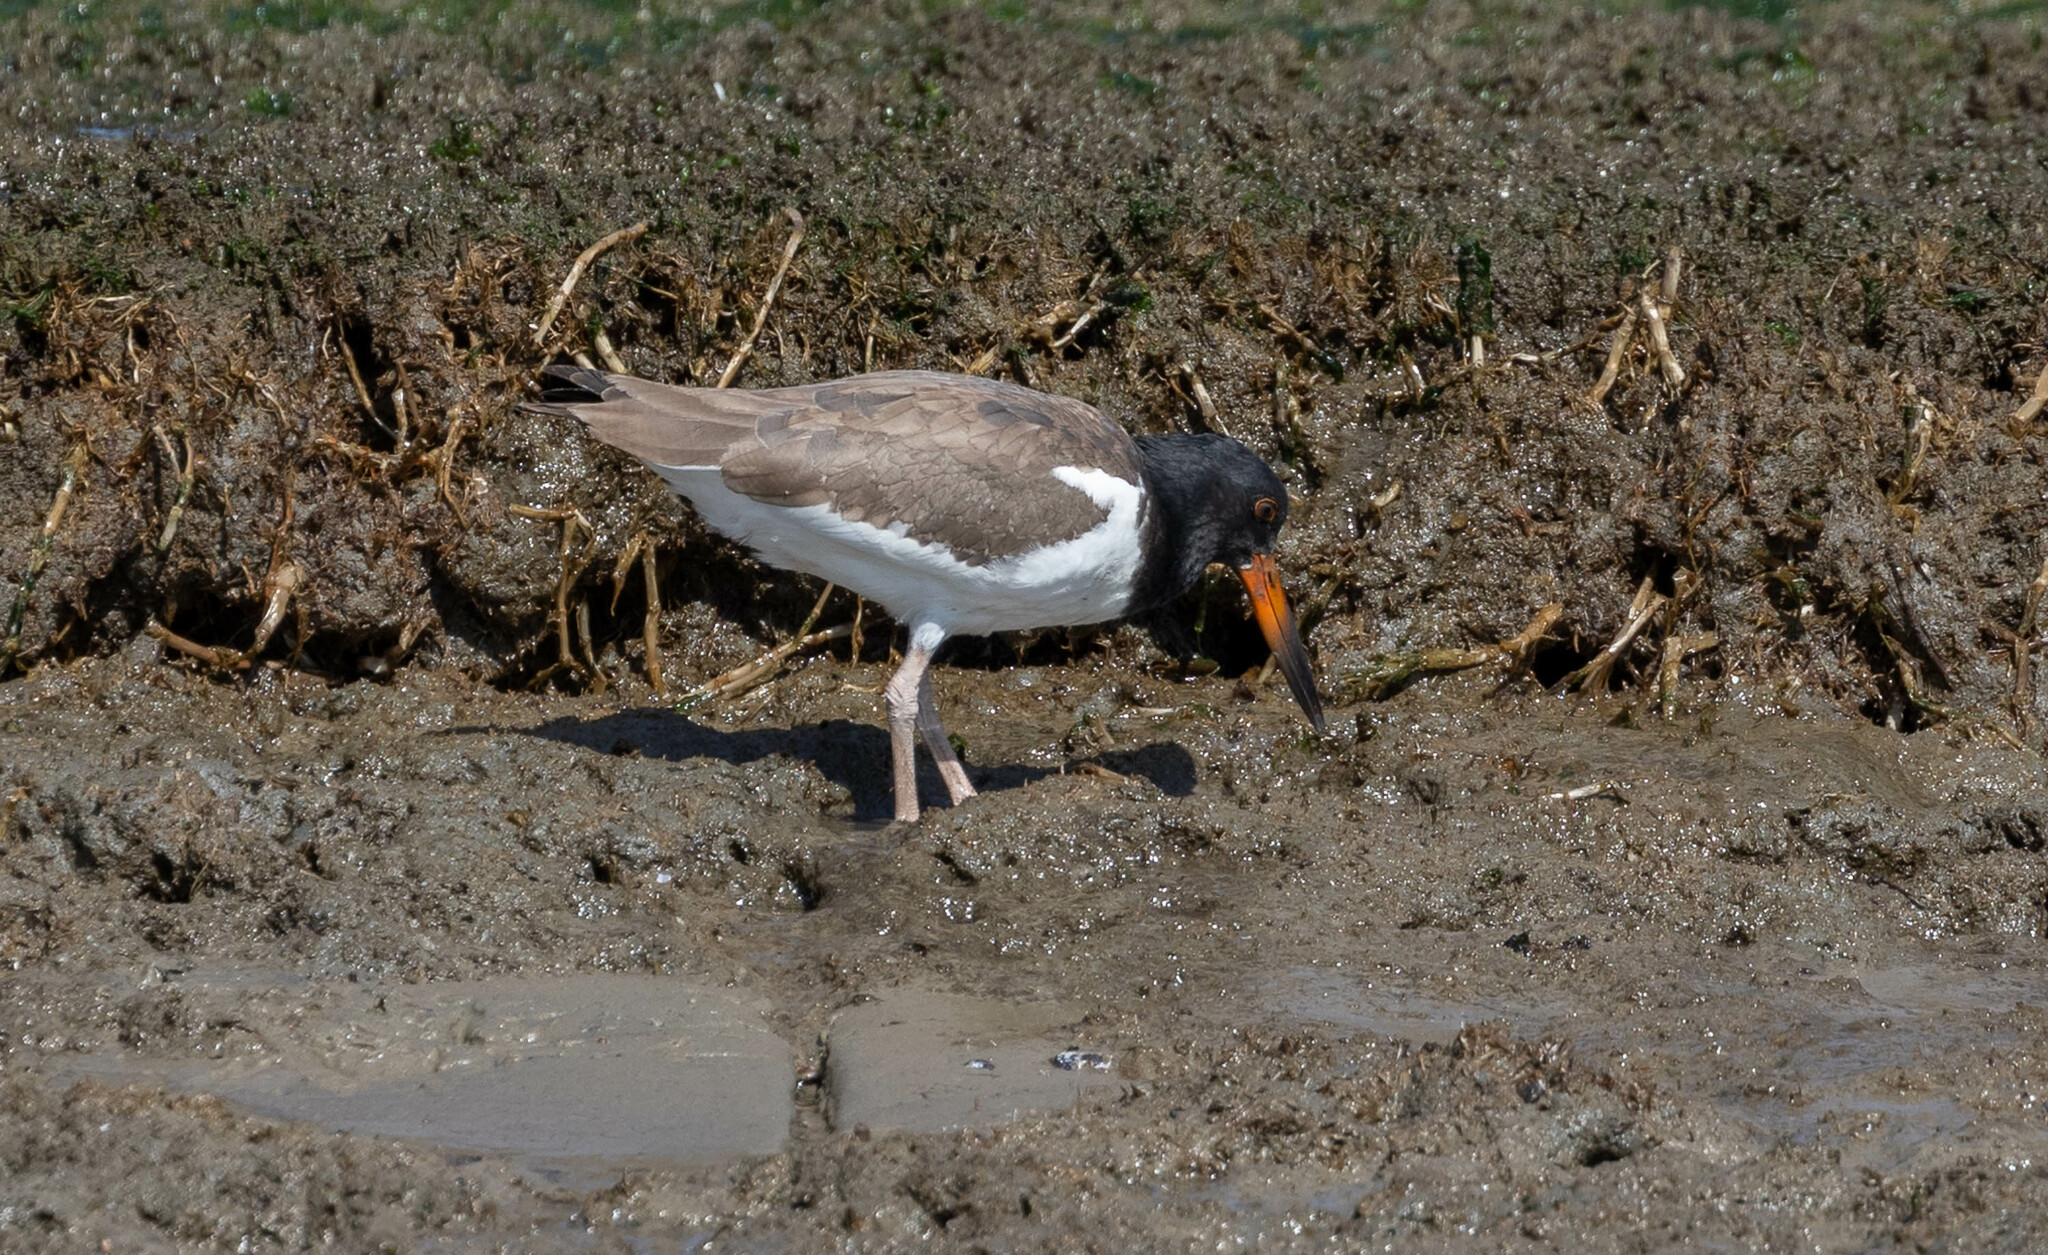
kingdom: Animalia
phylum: Chordata
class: Aves
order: Charadriiformes
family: Haematopodidae
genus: Haematopus
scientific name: Haematopus palliatus
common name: American oystercatcher
